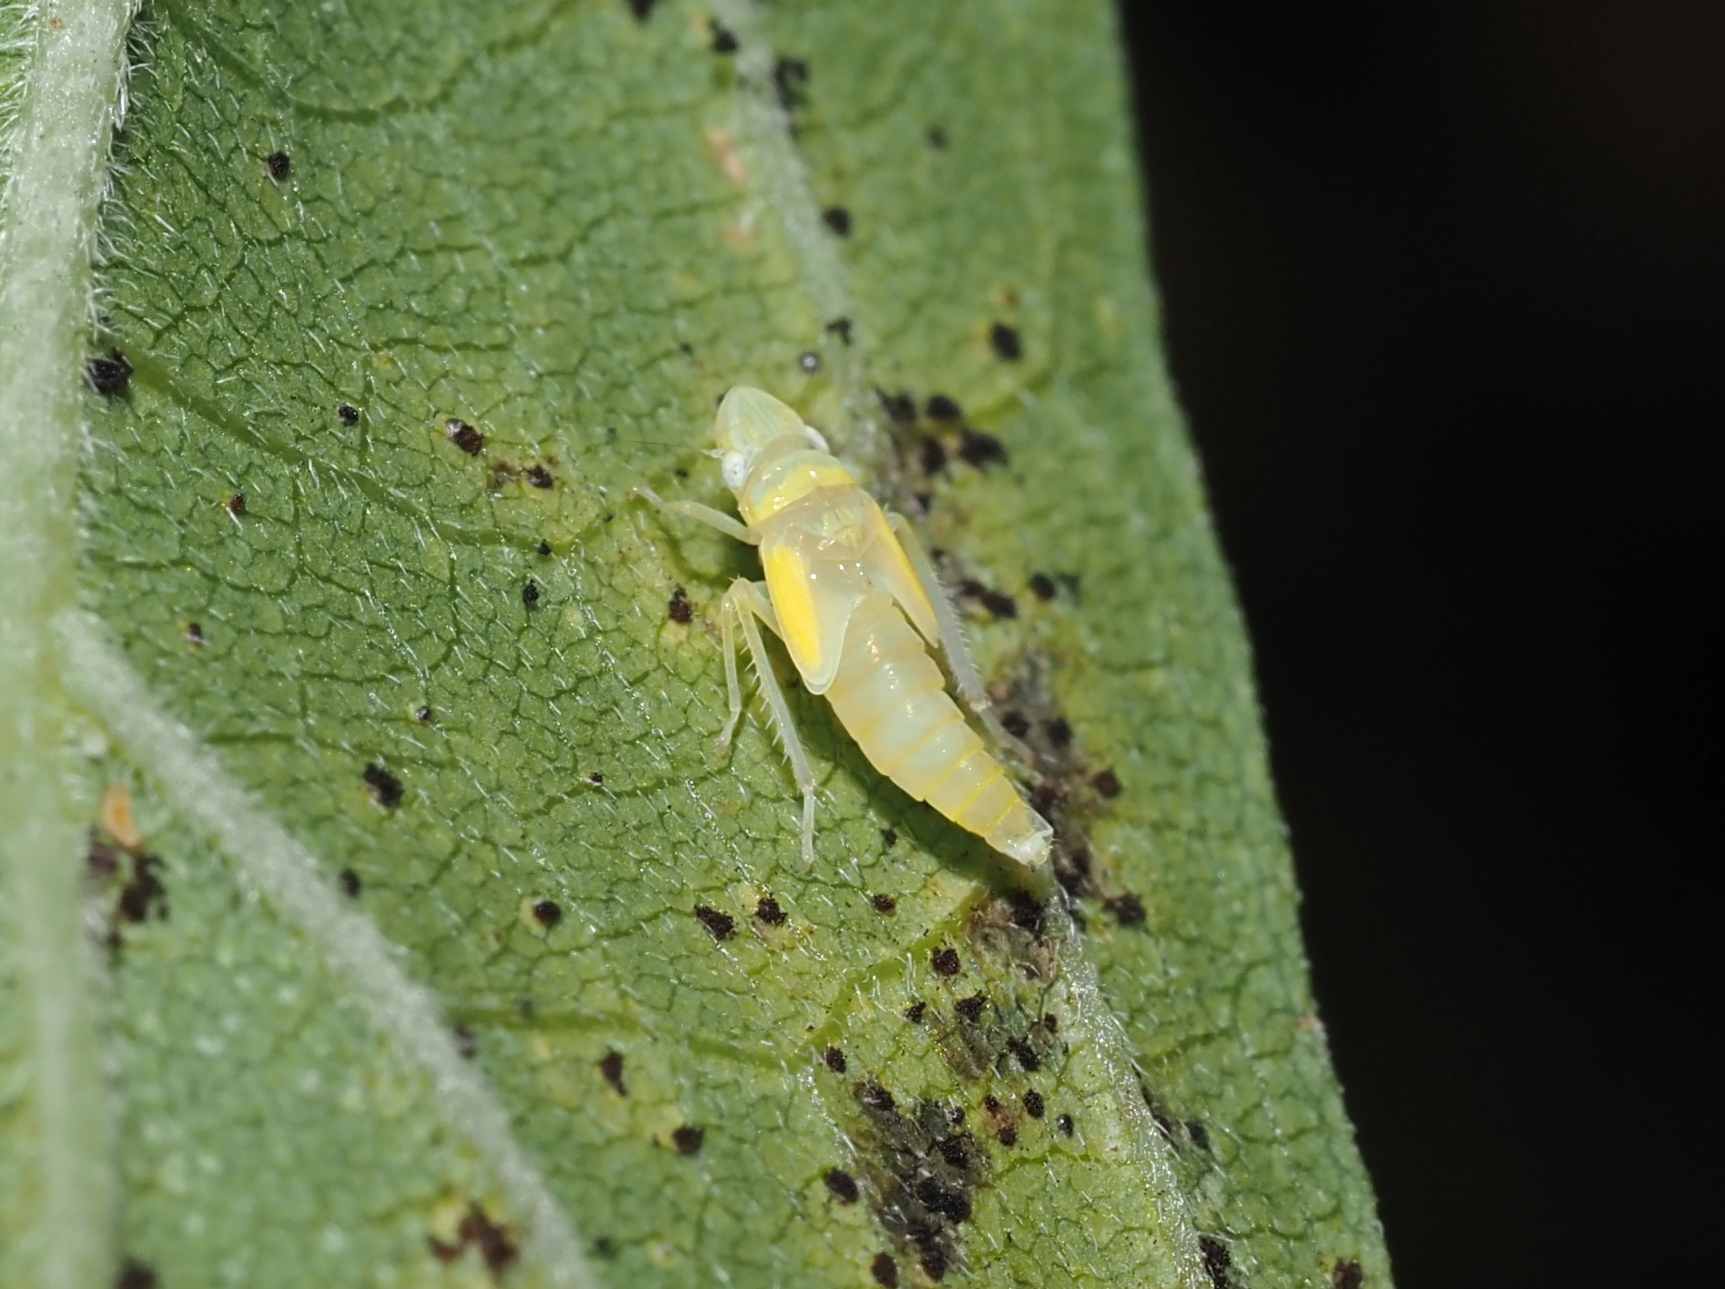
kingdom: Animalia
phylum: Arthropoda
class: Insecta
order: Hemiptera
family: Cicadellidae
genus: Graphocephala
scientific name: Graphocephala fennahi
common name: Rhododendron leafhopper
